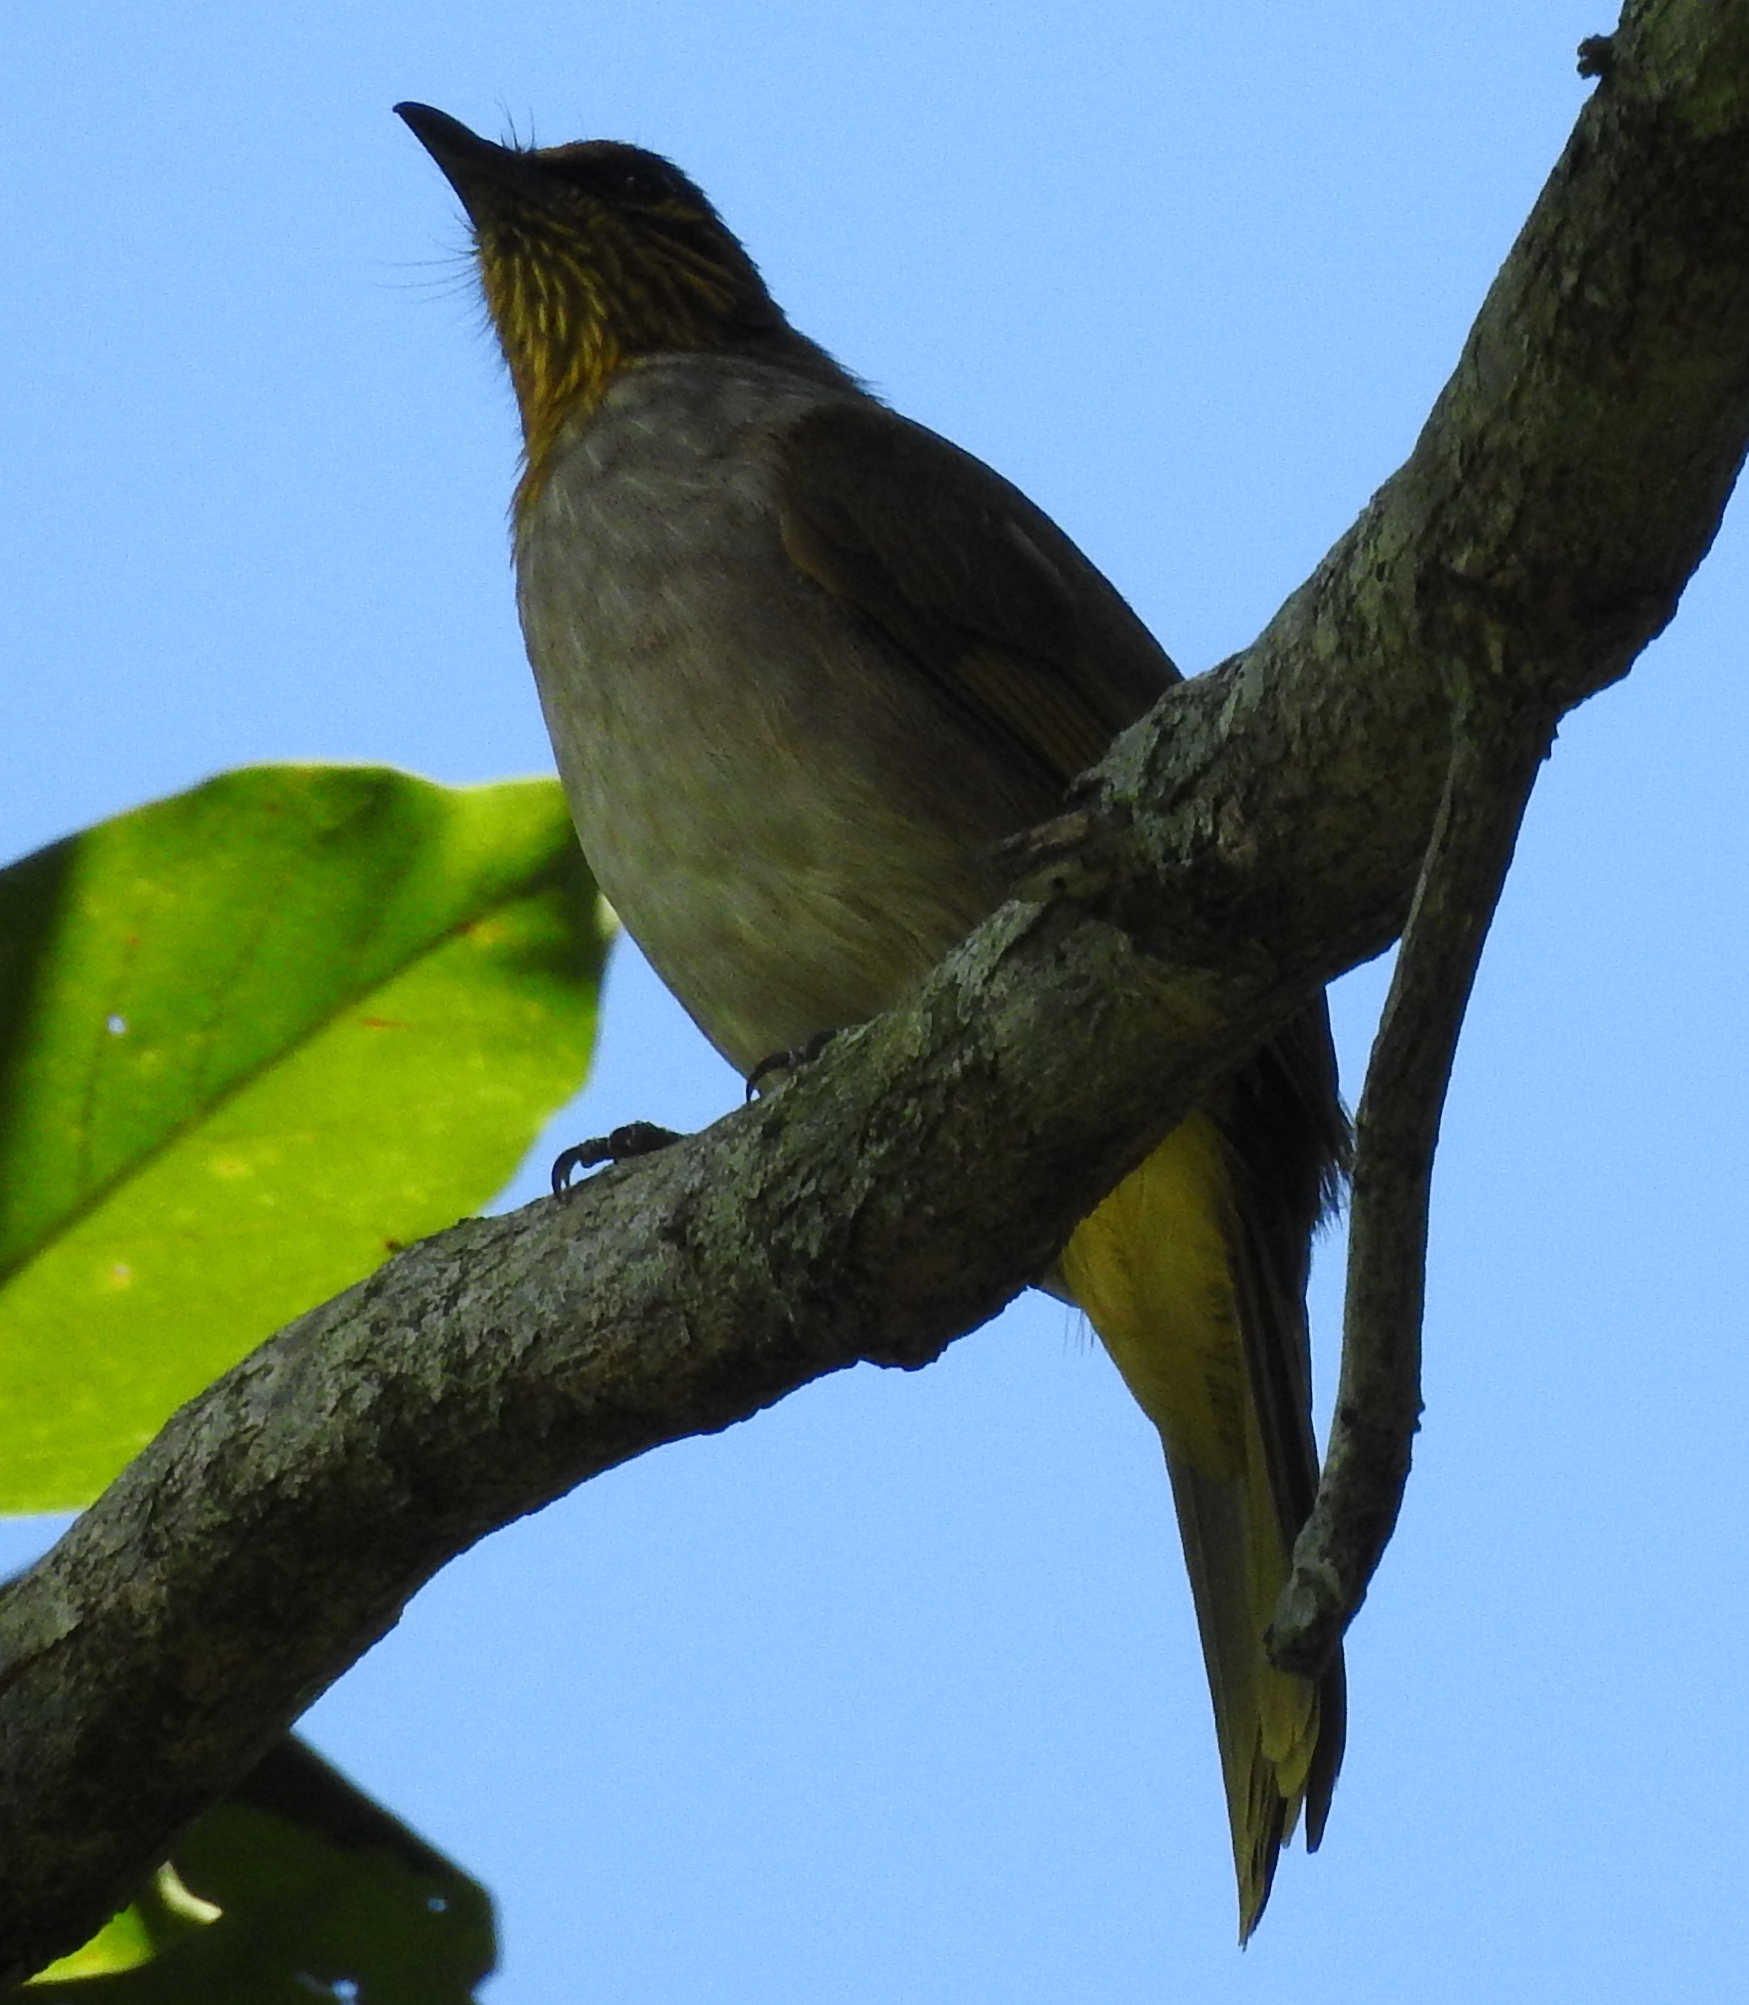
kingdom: Animalia
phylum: Chordata
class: Aves
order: Passeriformes
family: Pycnonotidae
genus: Pycnonotus
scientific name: Pycnonotus finlaysoni
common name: Stripe-throated bulbul
